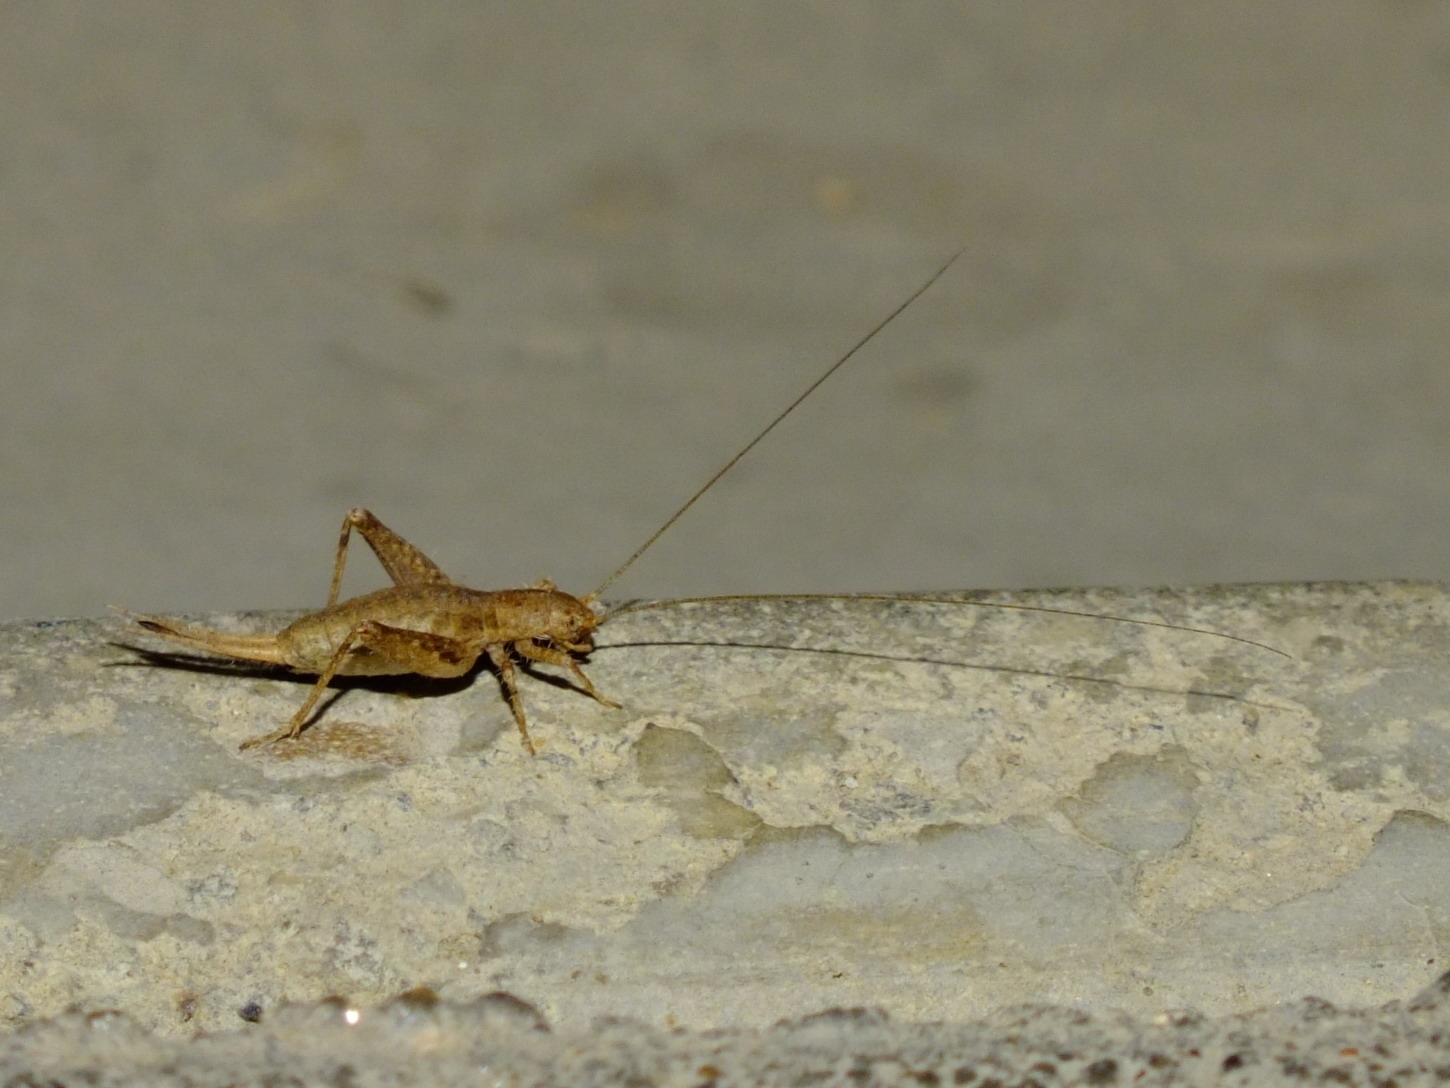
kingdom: Animalia
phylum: Arthropoda
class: Insecta
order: Orthoptera
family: Mogoplistidae
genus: Arachnocephalus
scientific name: Arachnocephalus vestitus
